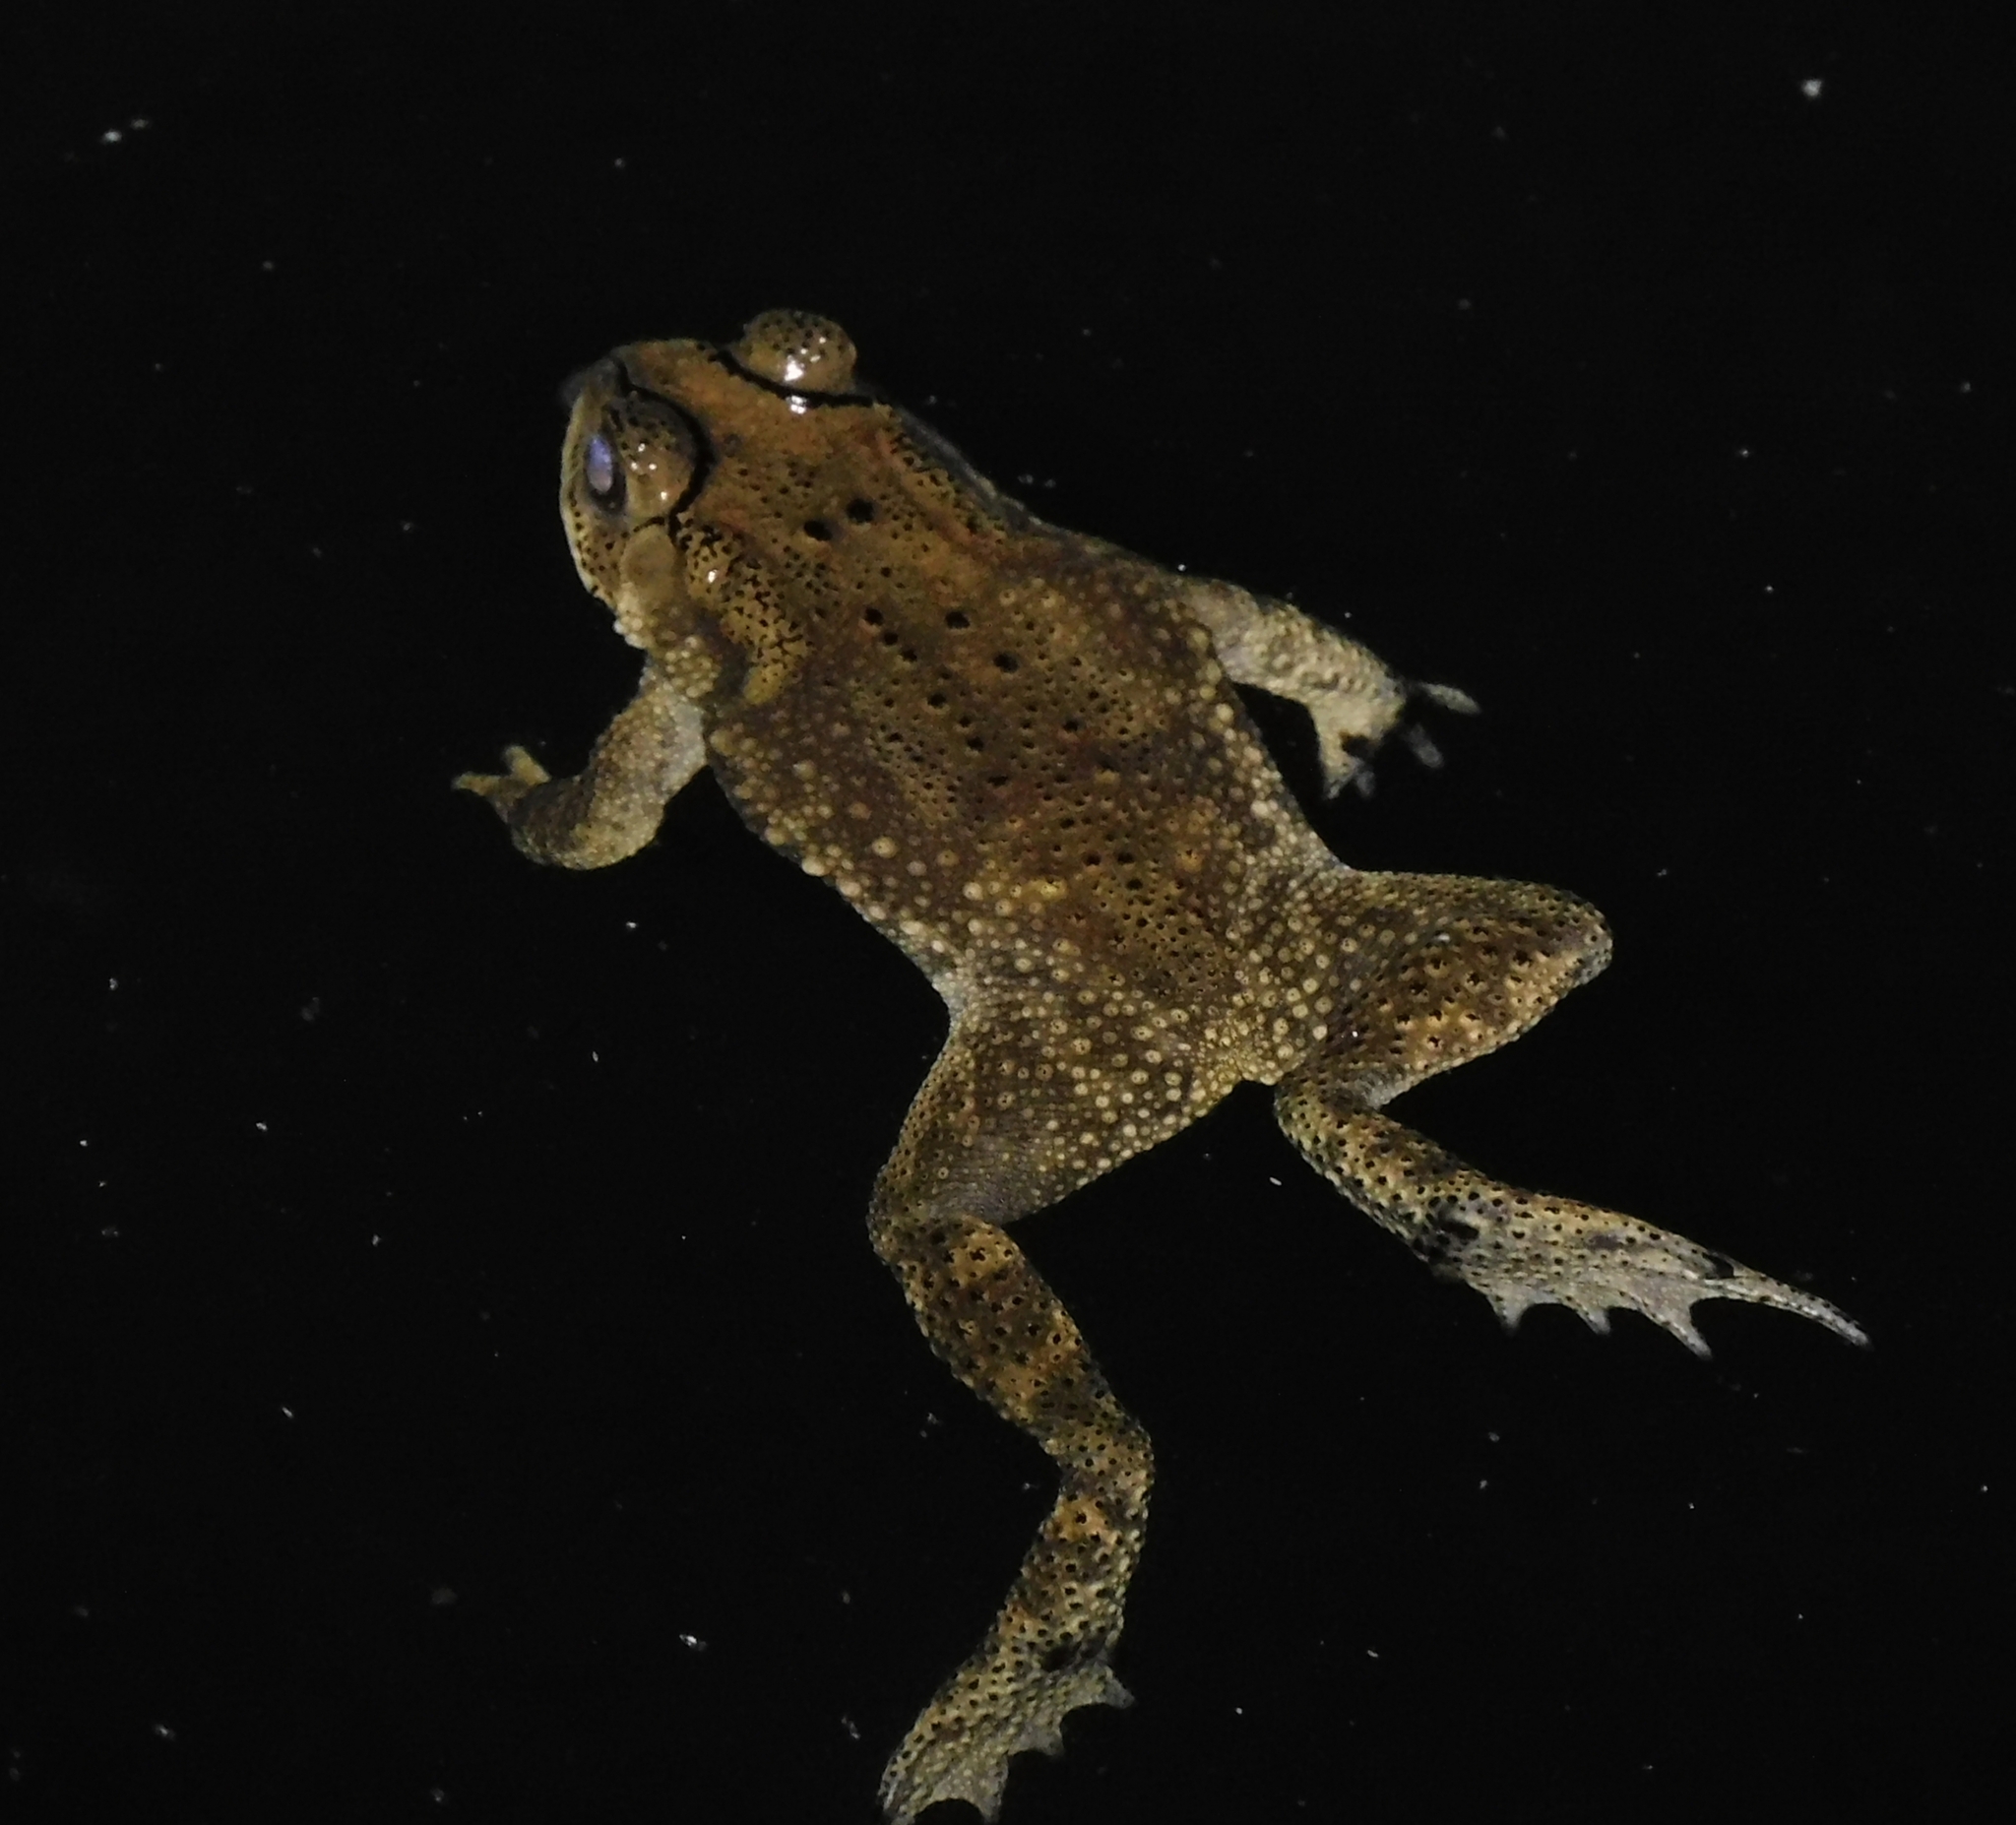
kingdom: Animalia
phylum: Chordata
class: Amphibia
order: Anura
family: Bufonidae
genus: Duttaphrynus
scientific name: Duttaphrynus melanostictus
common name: Common sunda toad
